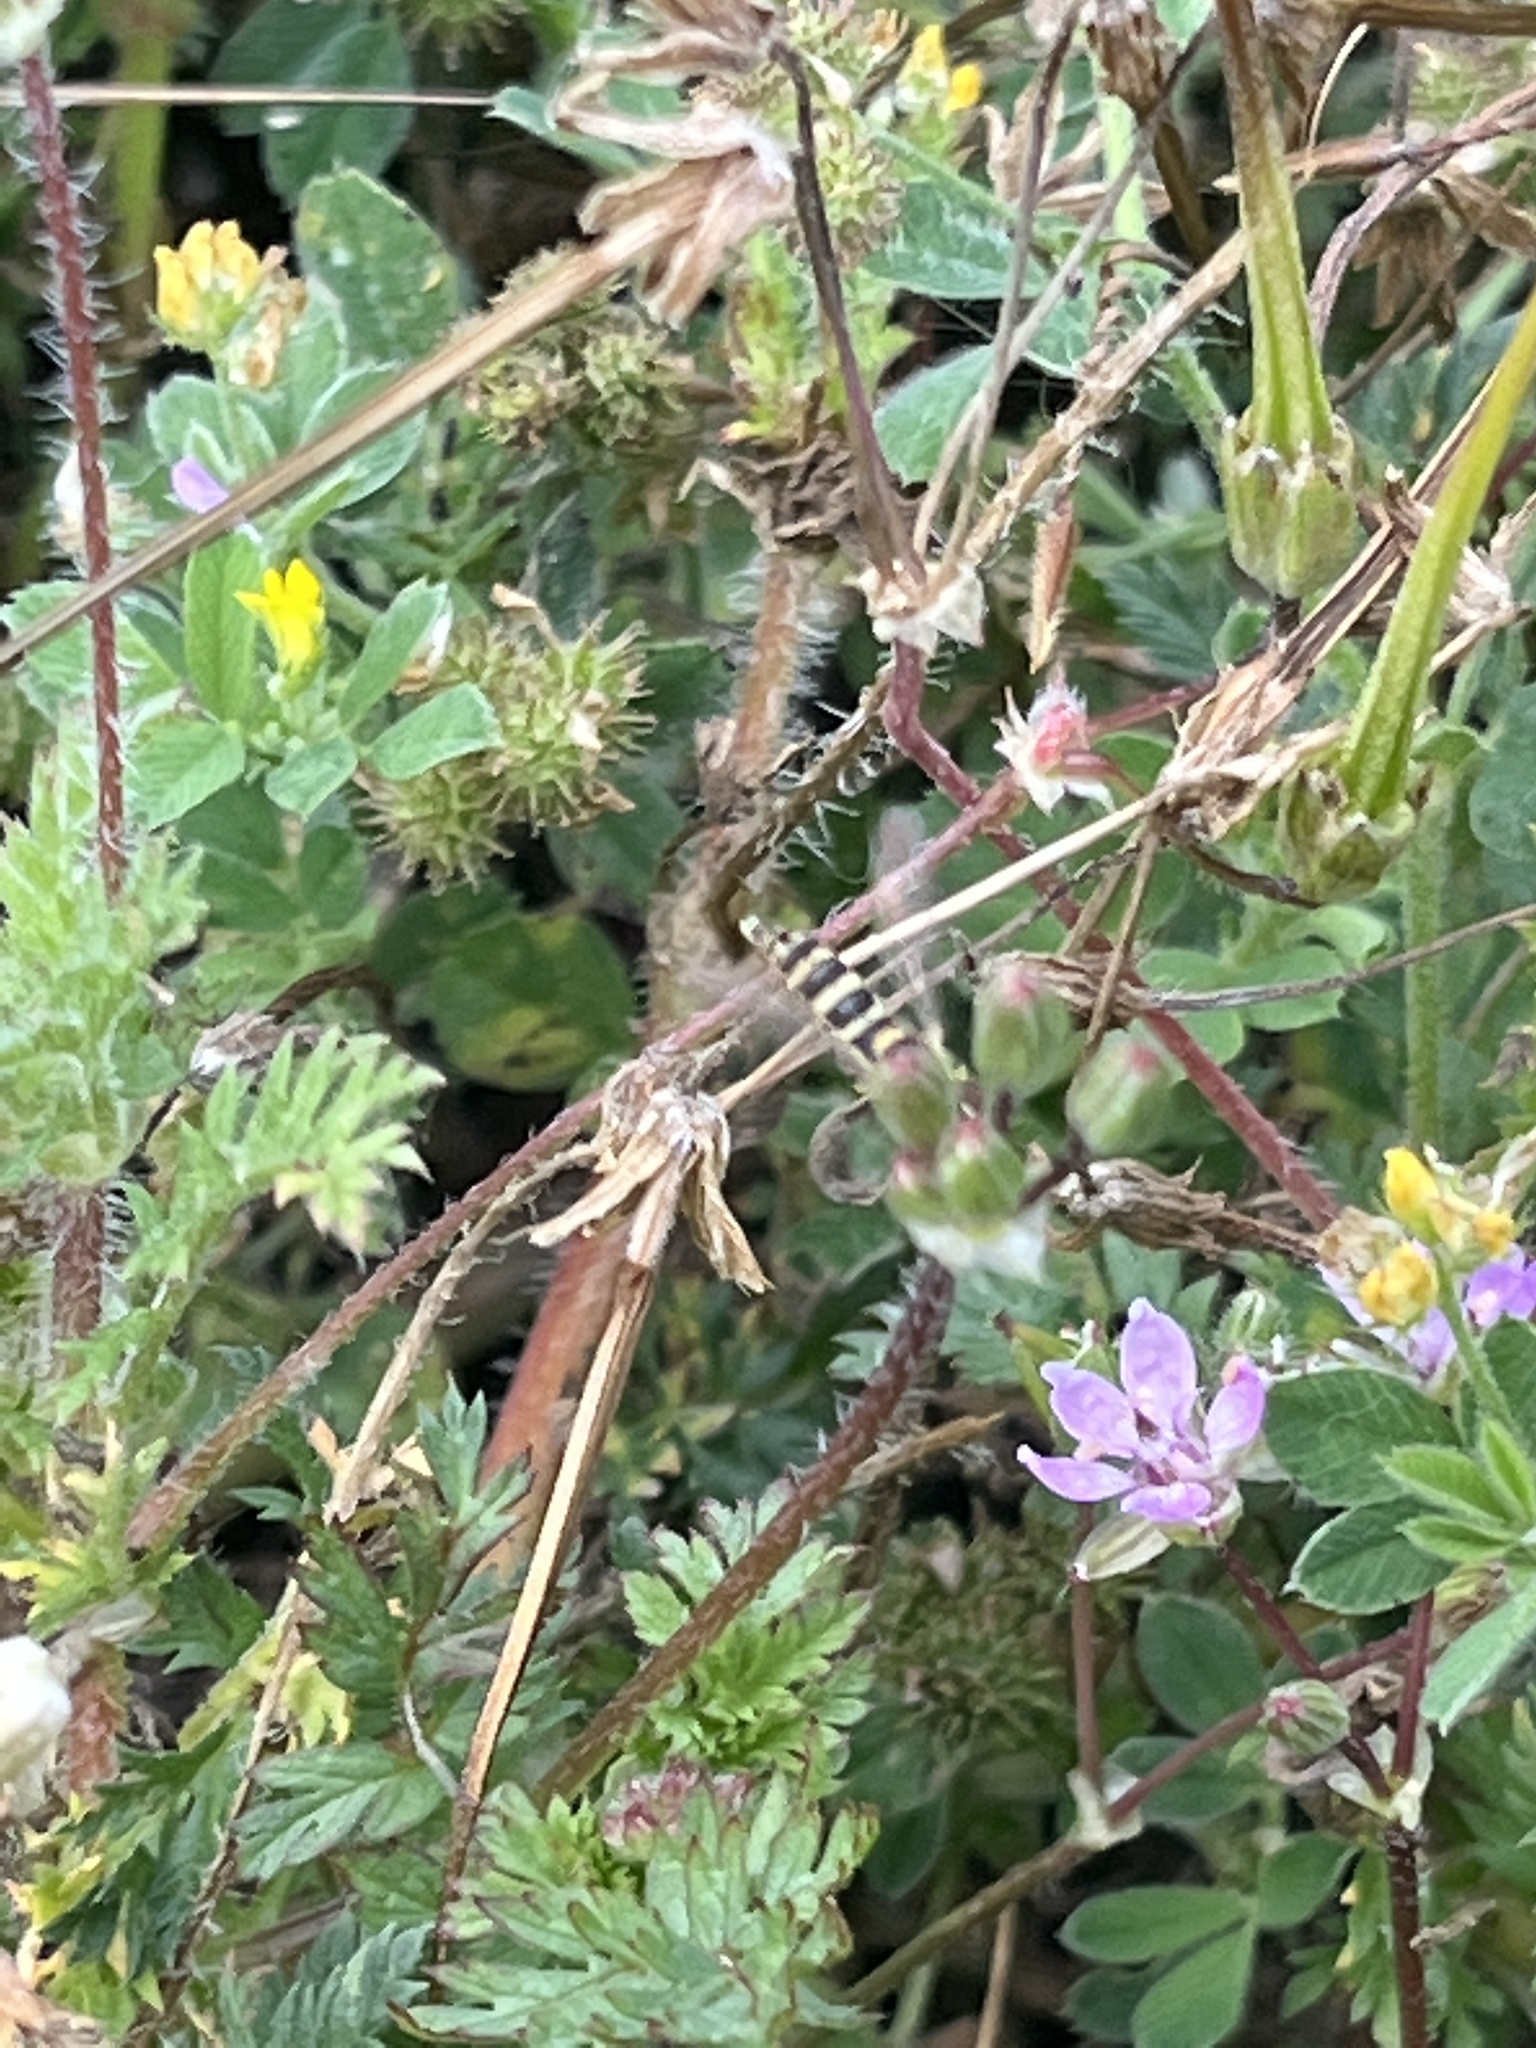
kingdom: Animalia
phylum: Arthropoda
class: Insecta
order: Diptera
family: Syrphidae
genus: Sphaerophoria
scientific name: Sphaerophoria
